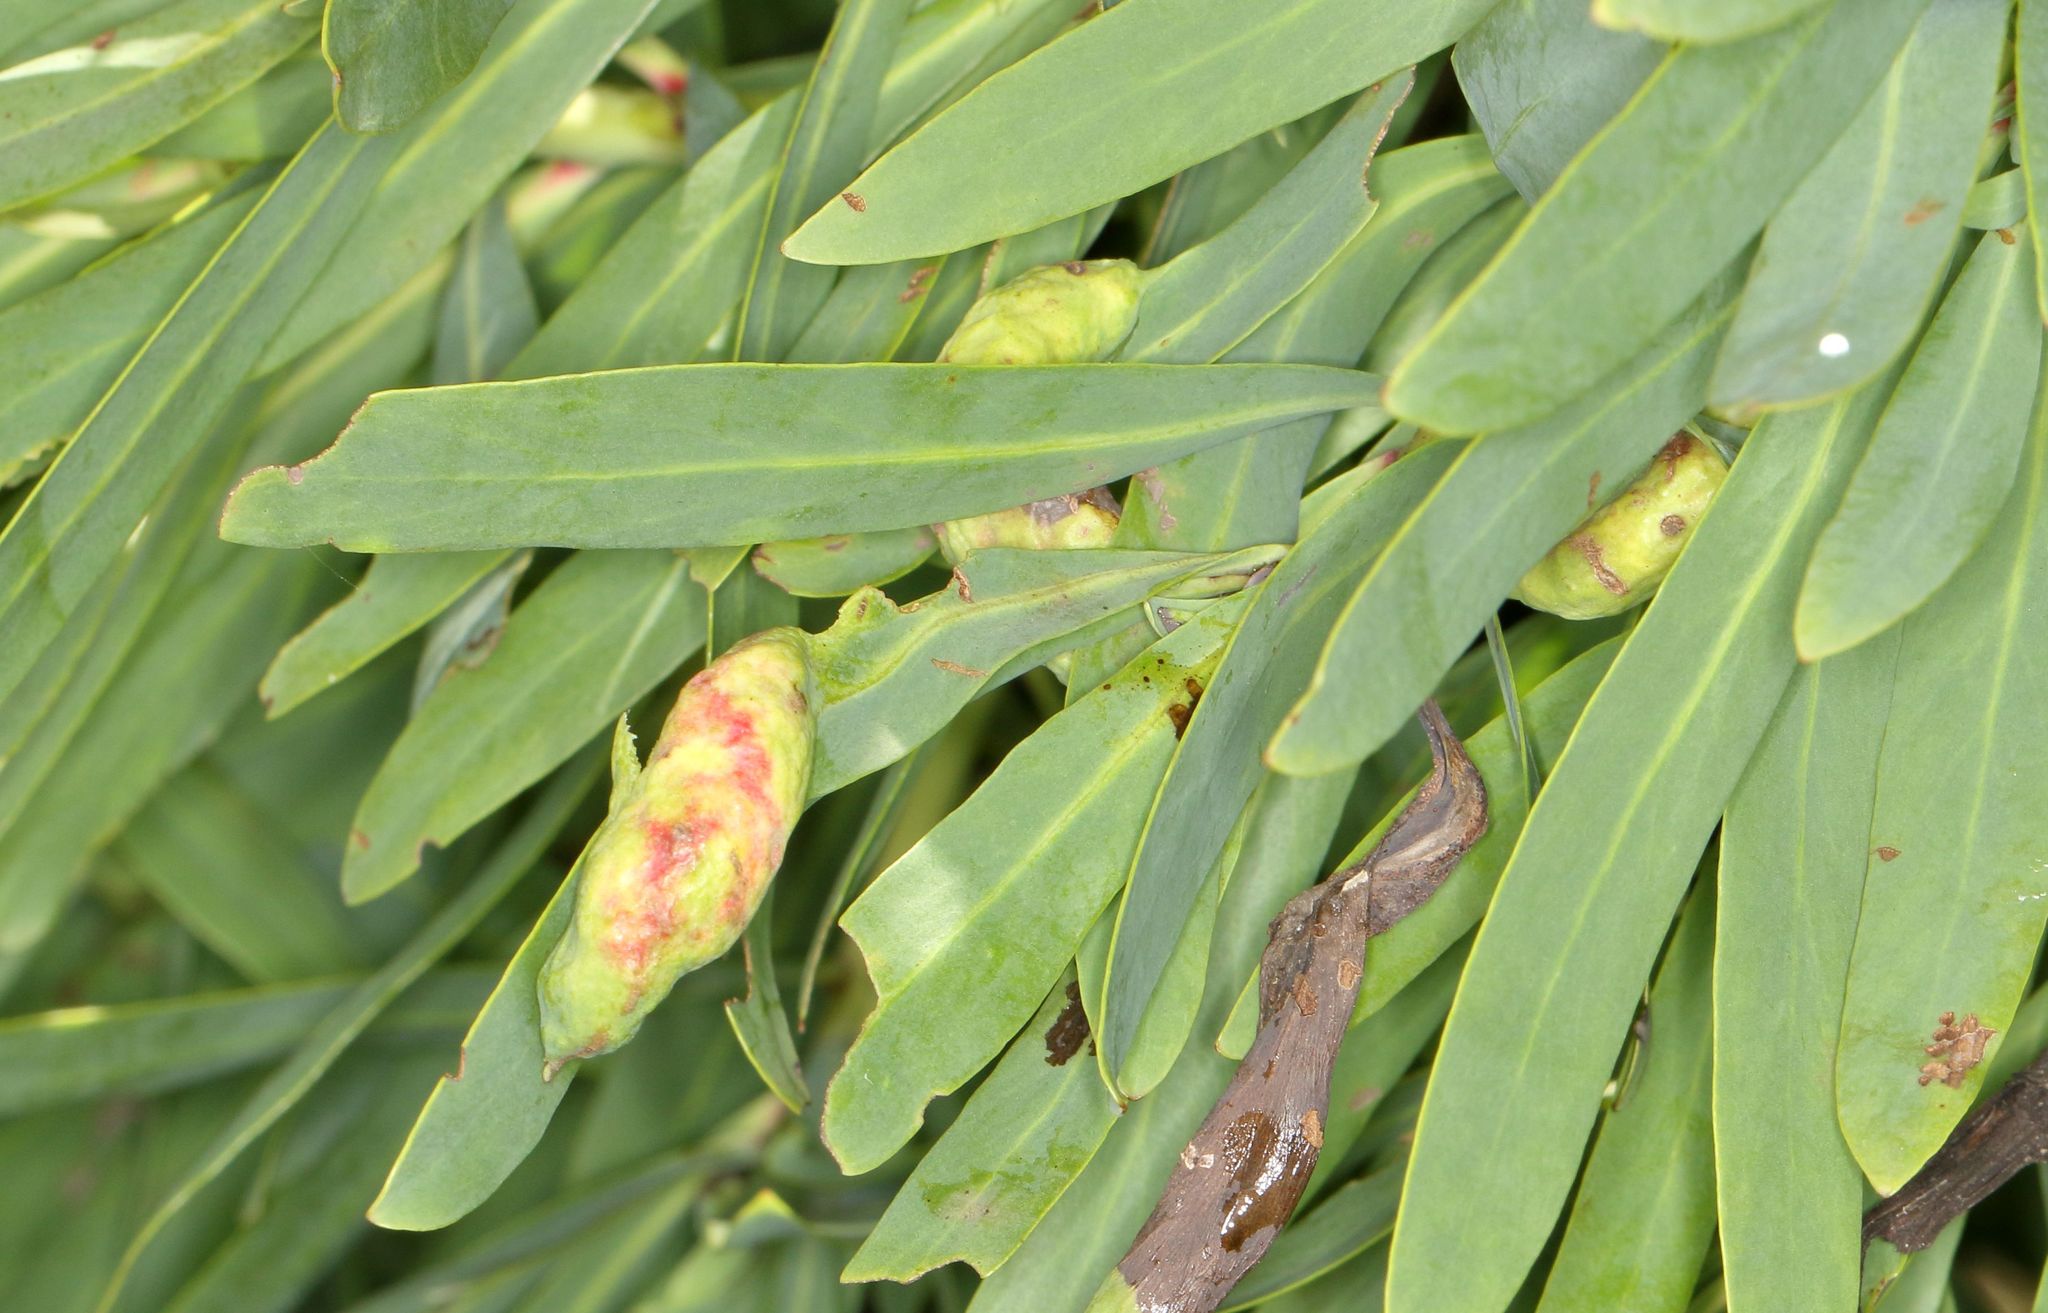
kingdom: Plantae
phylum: Tracheophyta
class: Magnoliopsida
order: Proteales
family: Proteaceae
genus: Protea
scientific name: Protea caffra
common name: Common sugarbush
